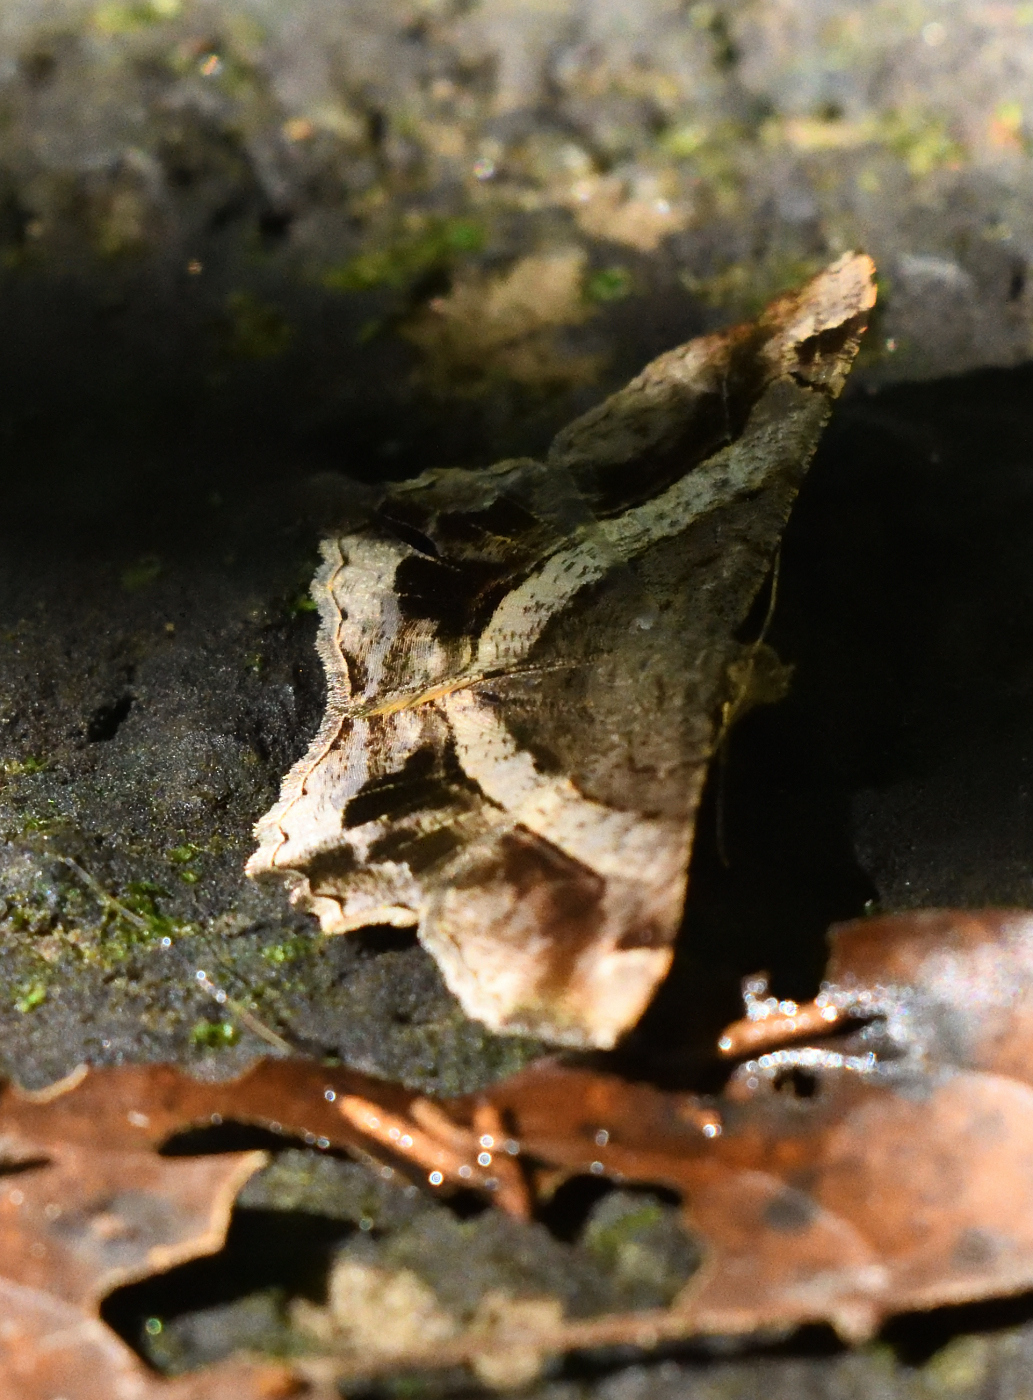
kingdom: Animalia
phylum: Arthropoda
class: Insecta
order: Lepidoptera
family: Geometridae
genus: Chiasmia
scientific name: Chiasmia nora
